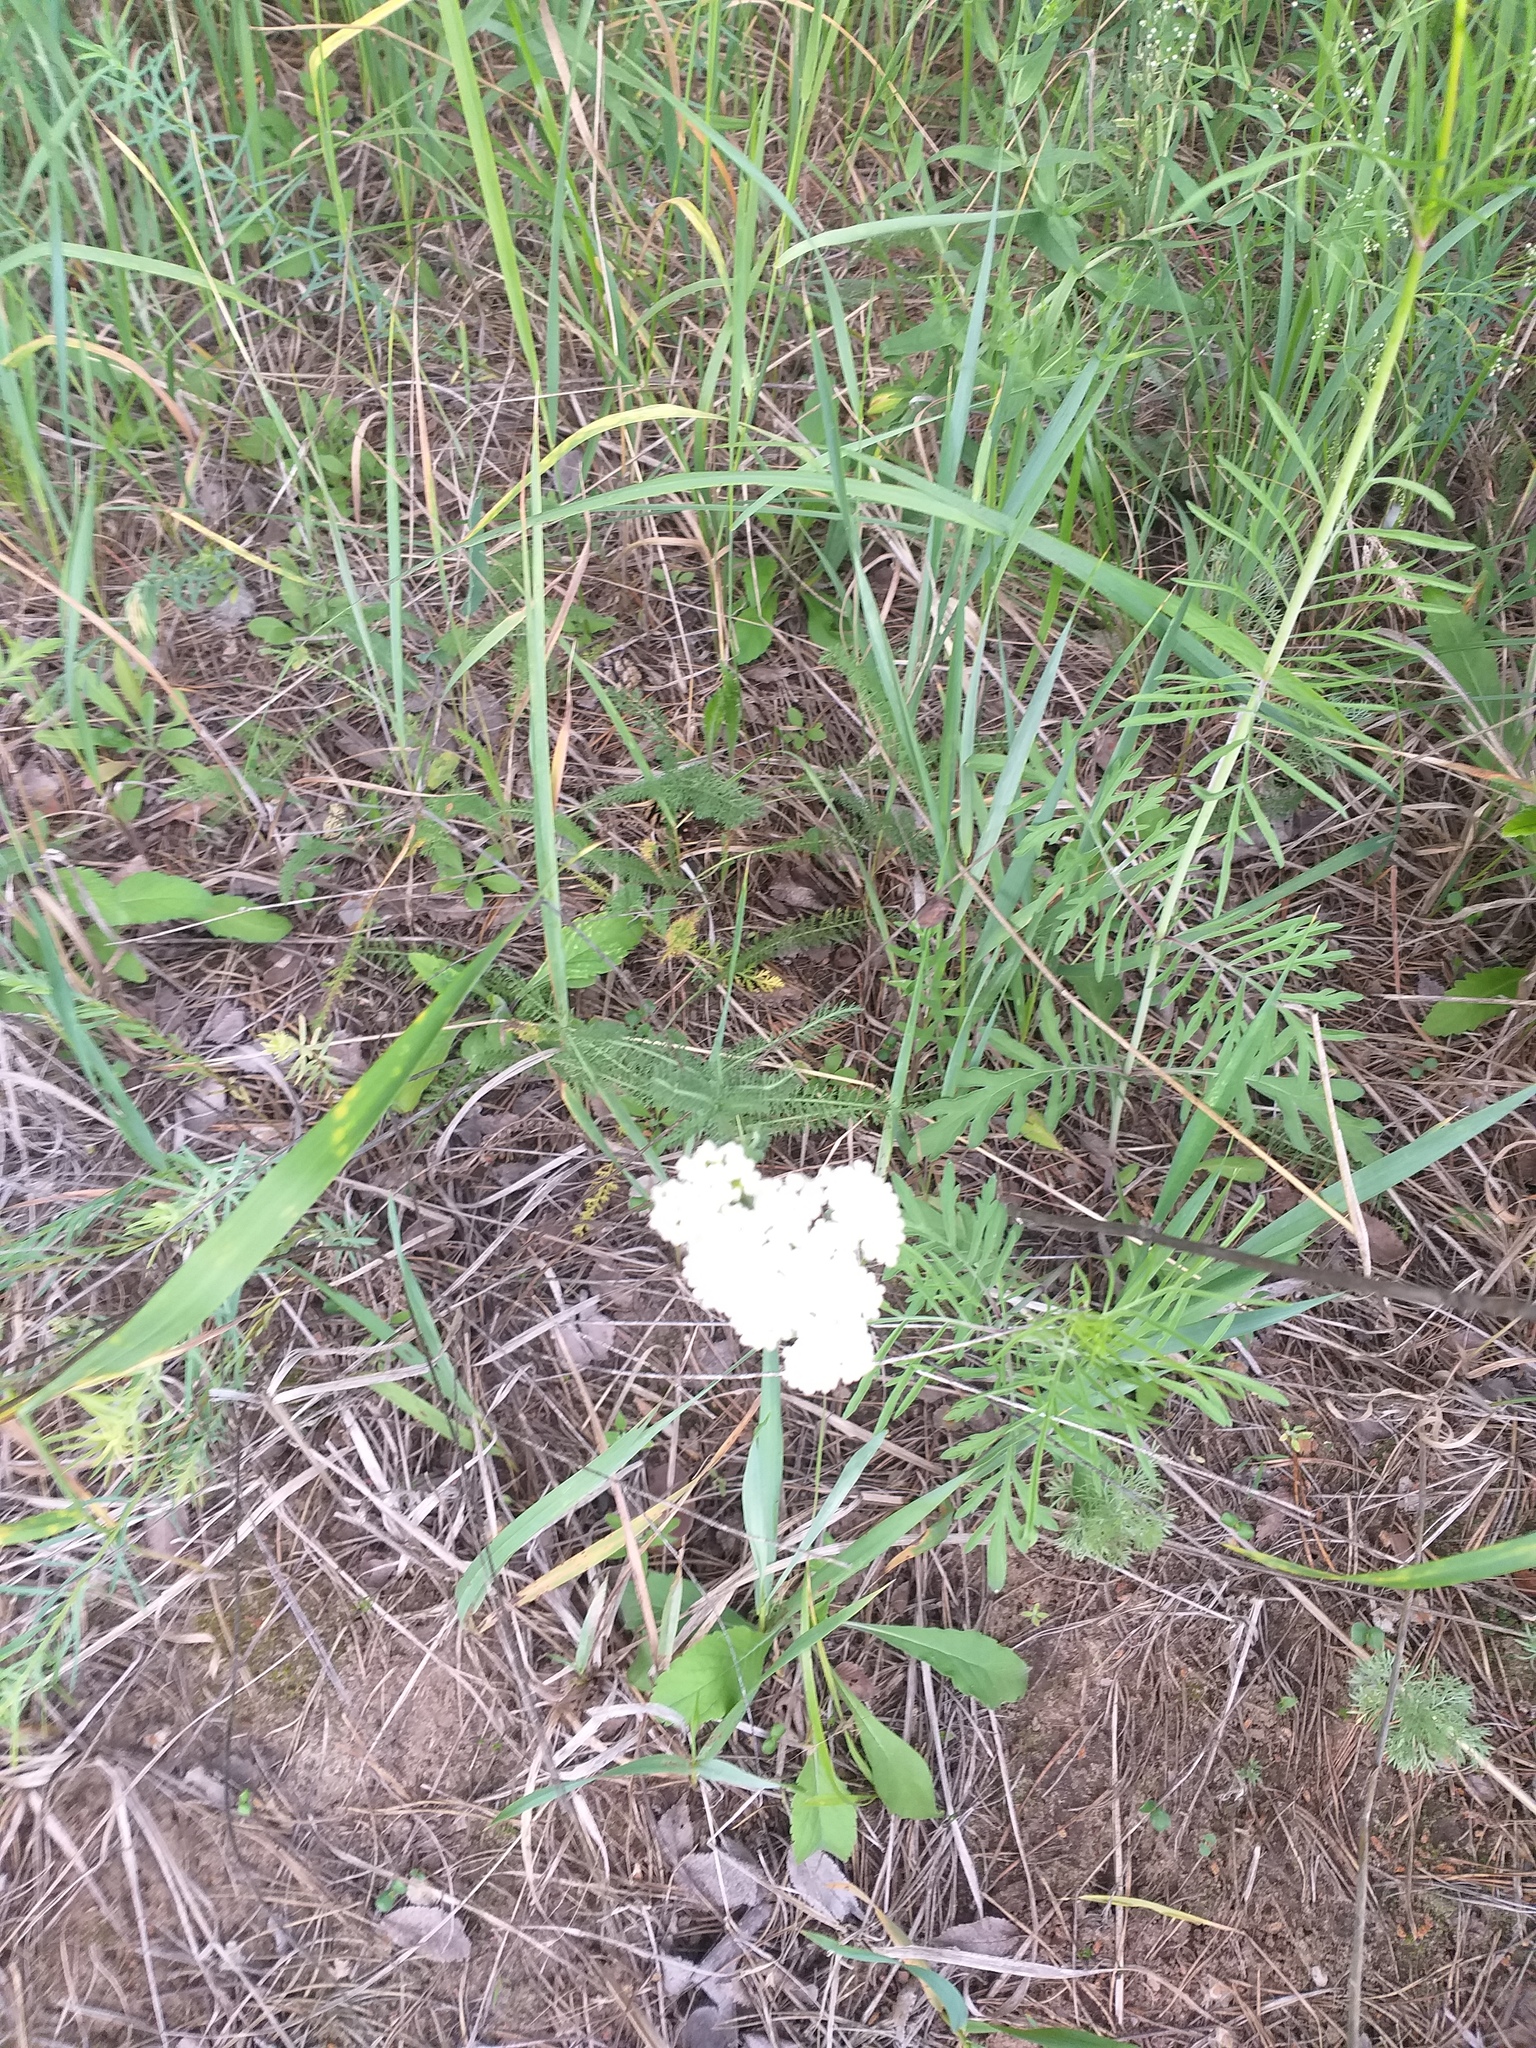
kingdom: Plantae
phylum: Tracheophyta
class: Magnoliopsida
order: Asterales
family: Asteraceae
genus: Achillea
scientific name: Achillea setacea
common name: Bristly yarrow
